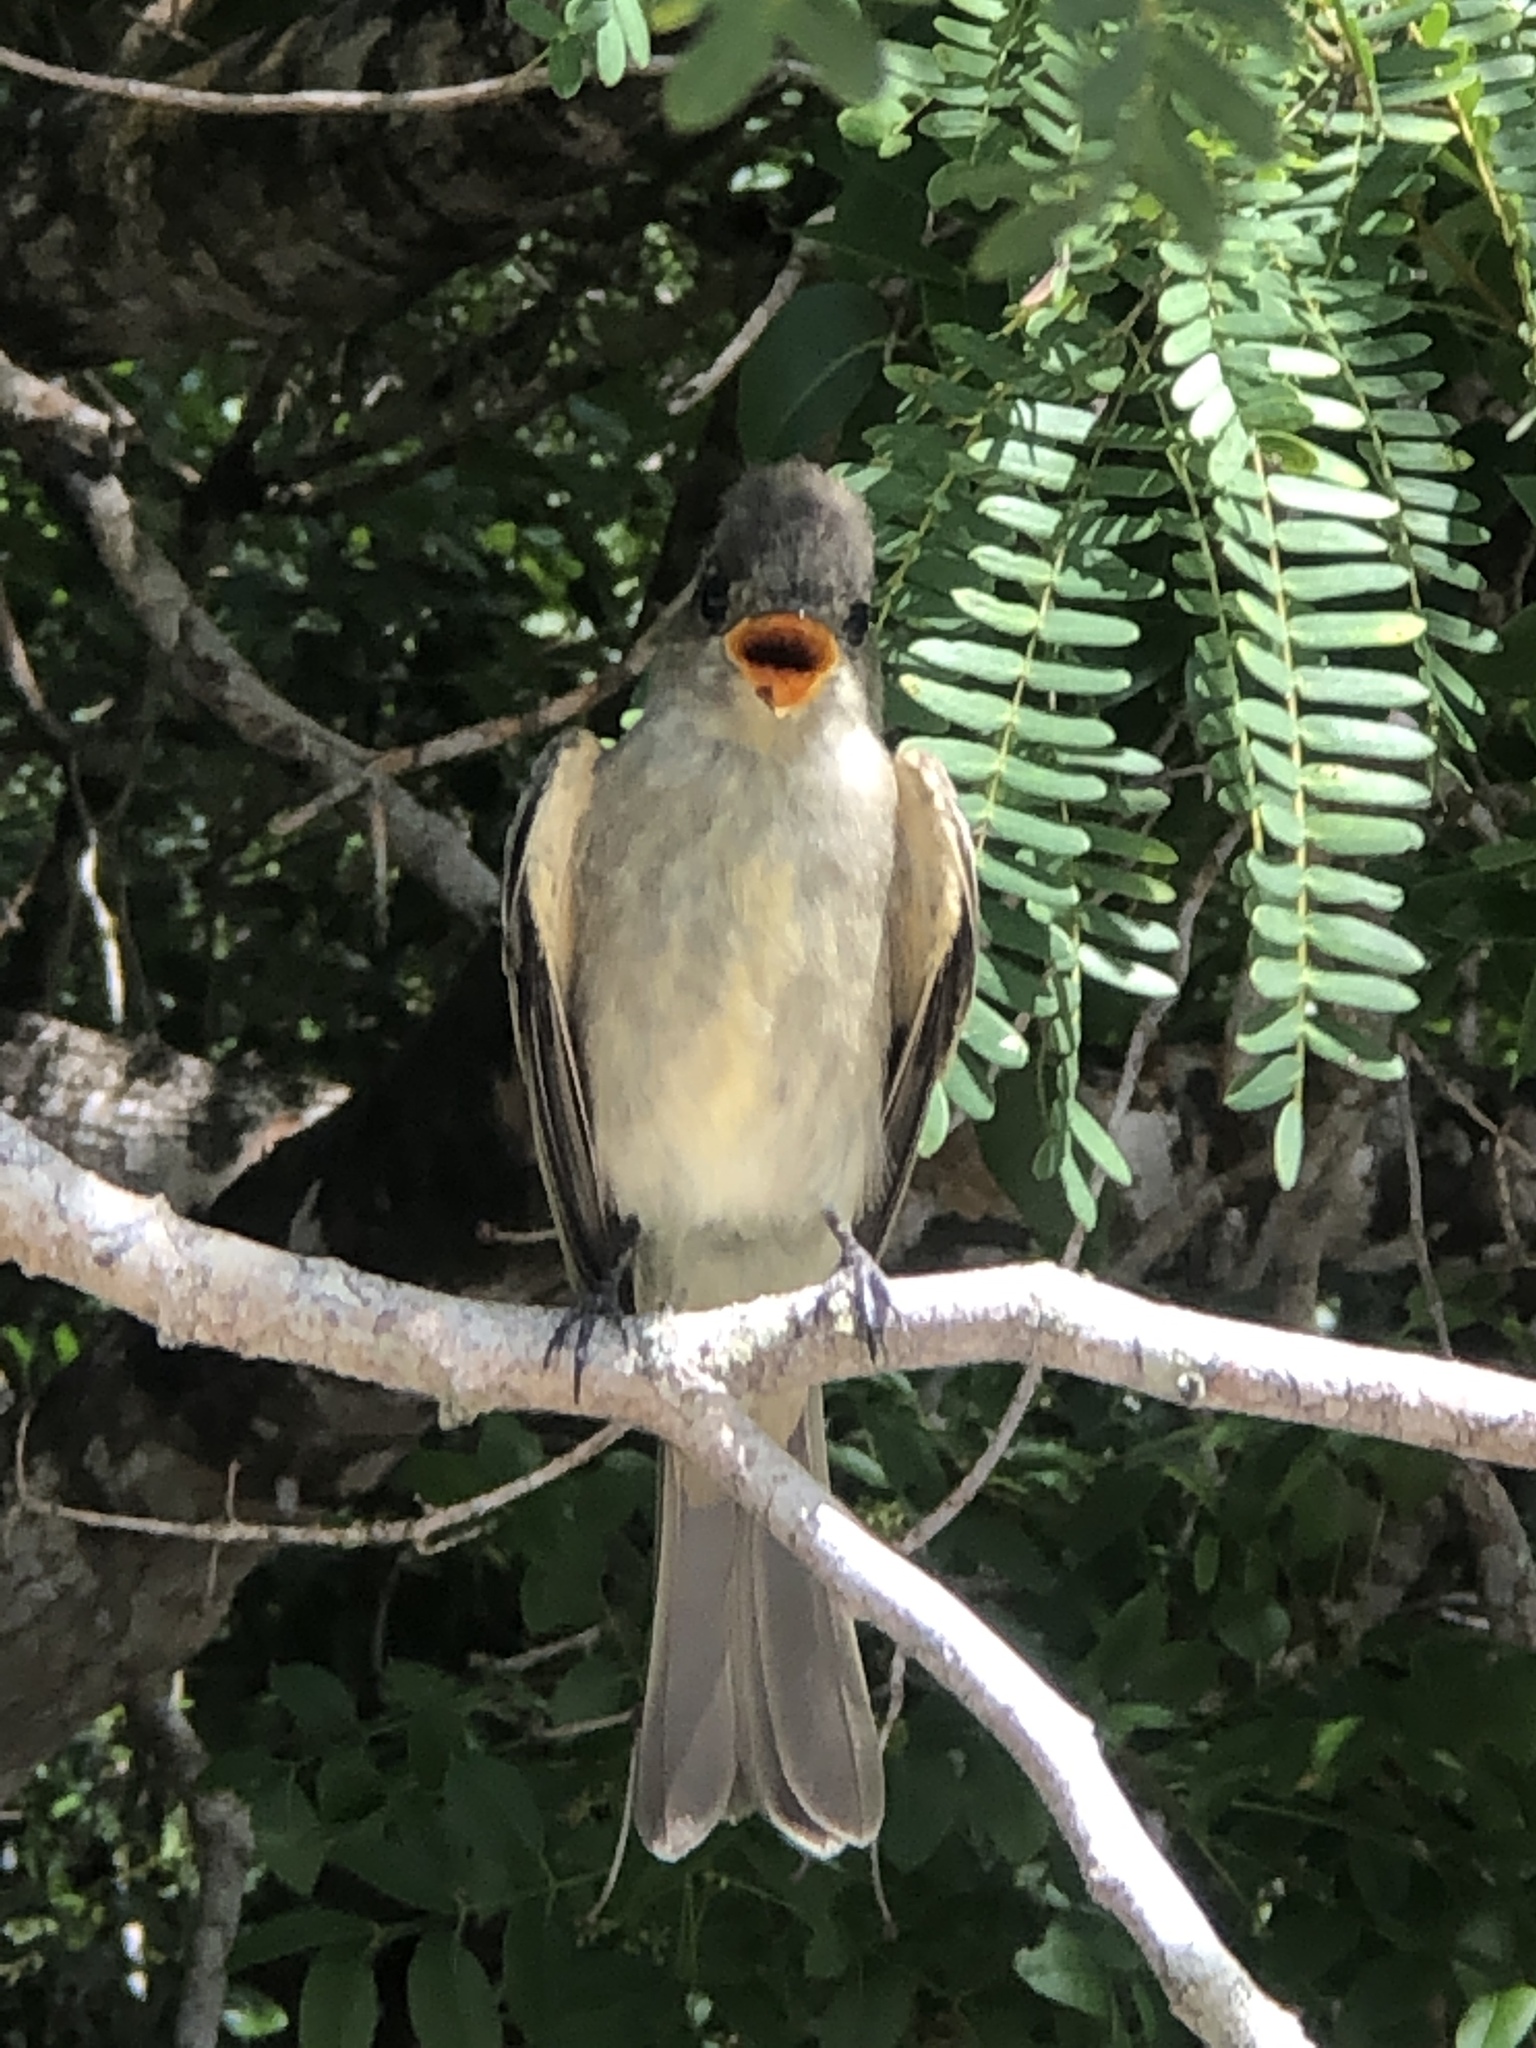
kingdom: Animalia
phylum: Chordata
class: Aves
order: Passeriformes
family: Tyrannidae
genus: Contopus
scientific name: Contopus caribaeus
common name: Cuban pewee
